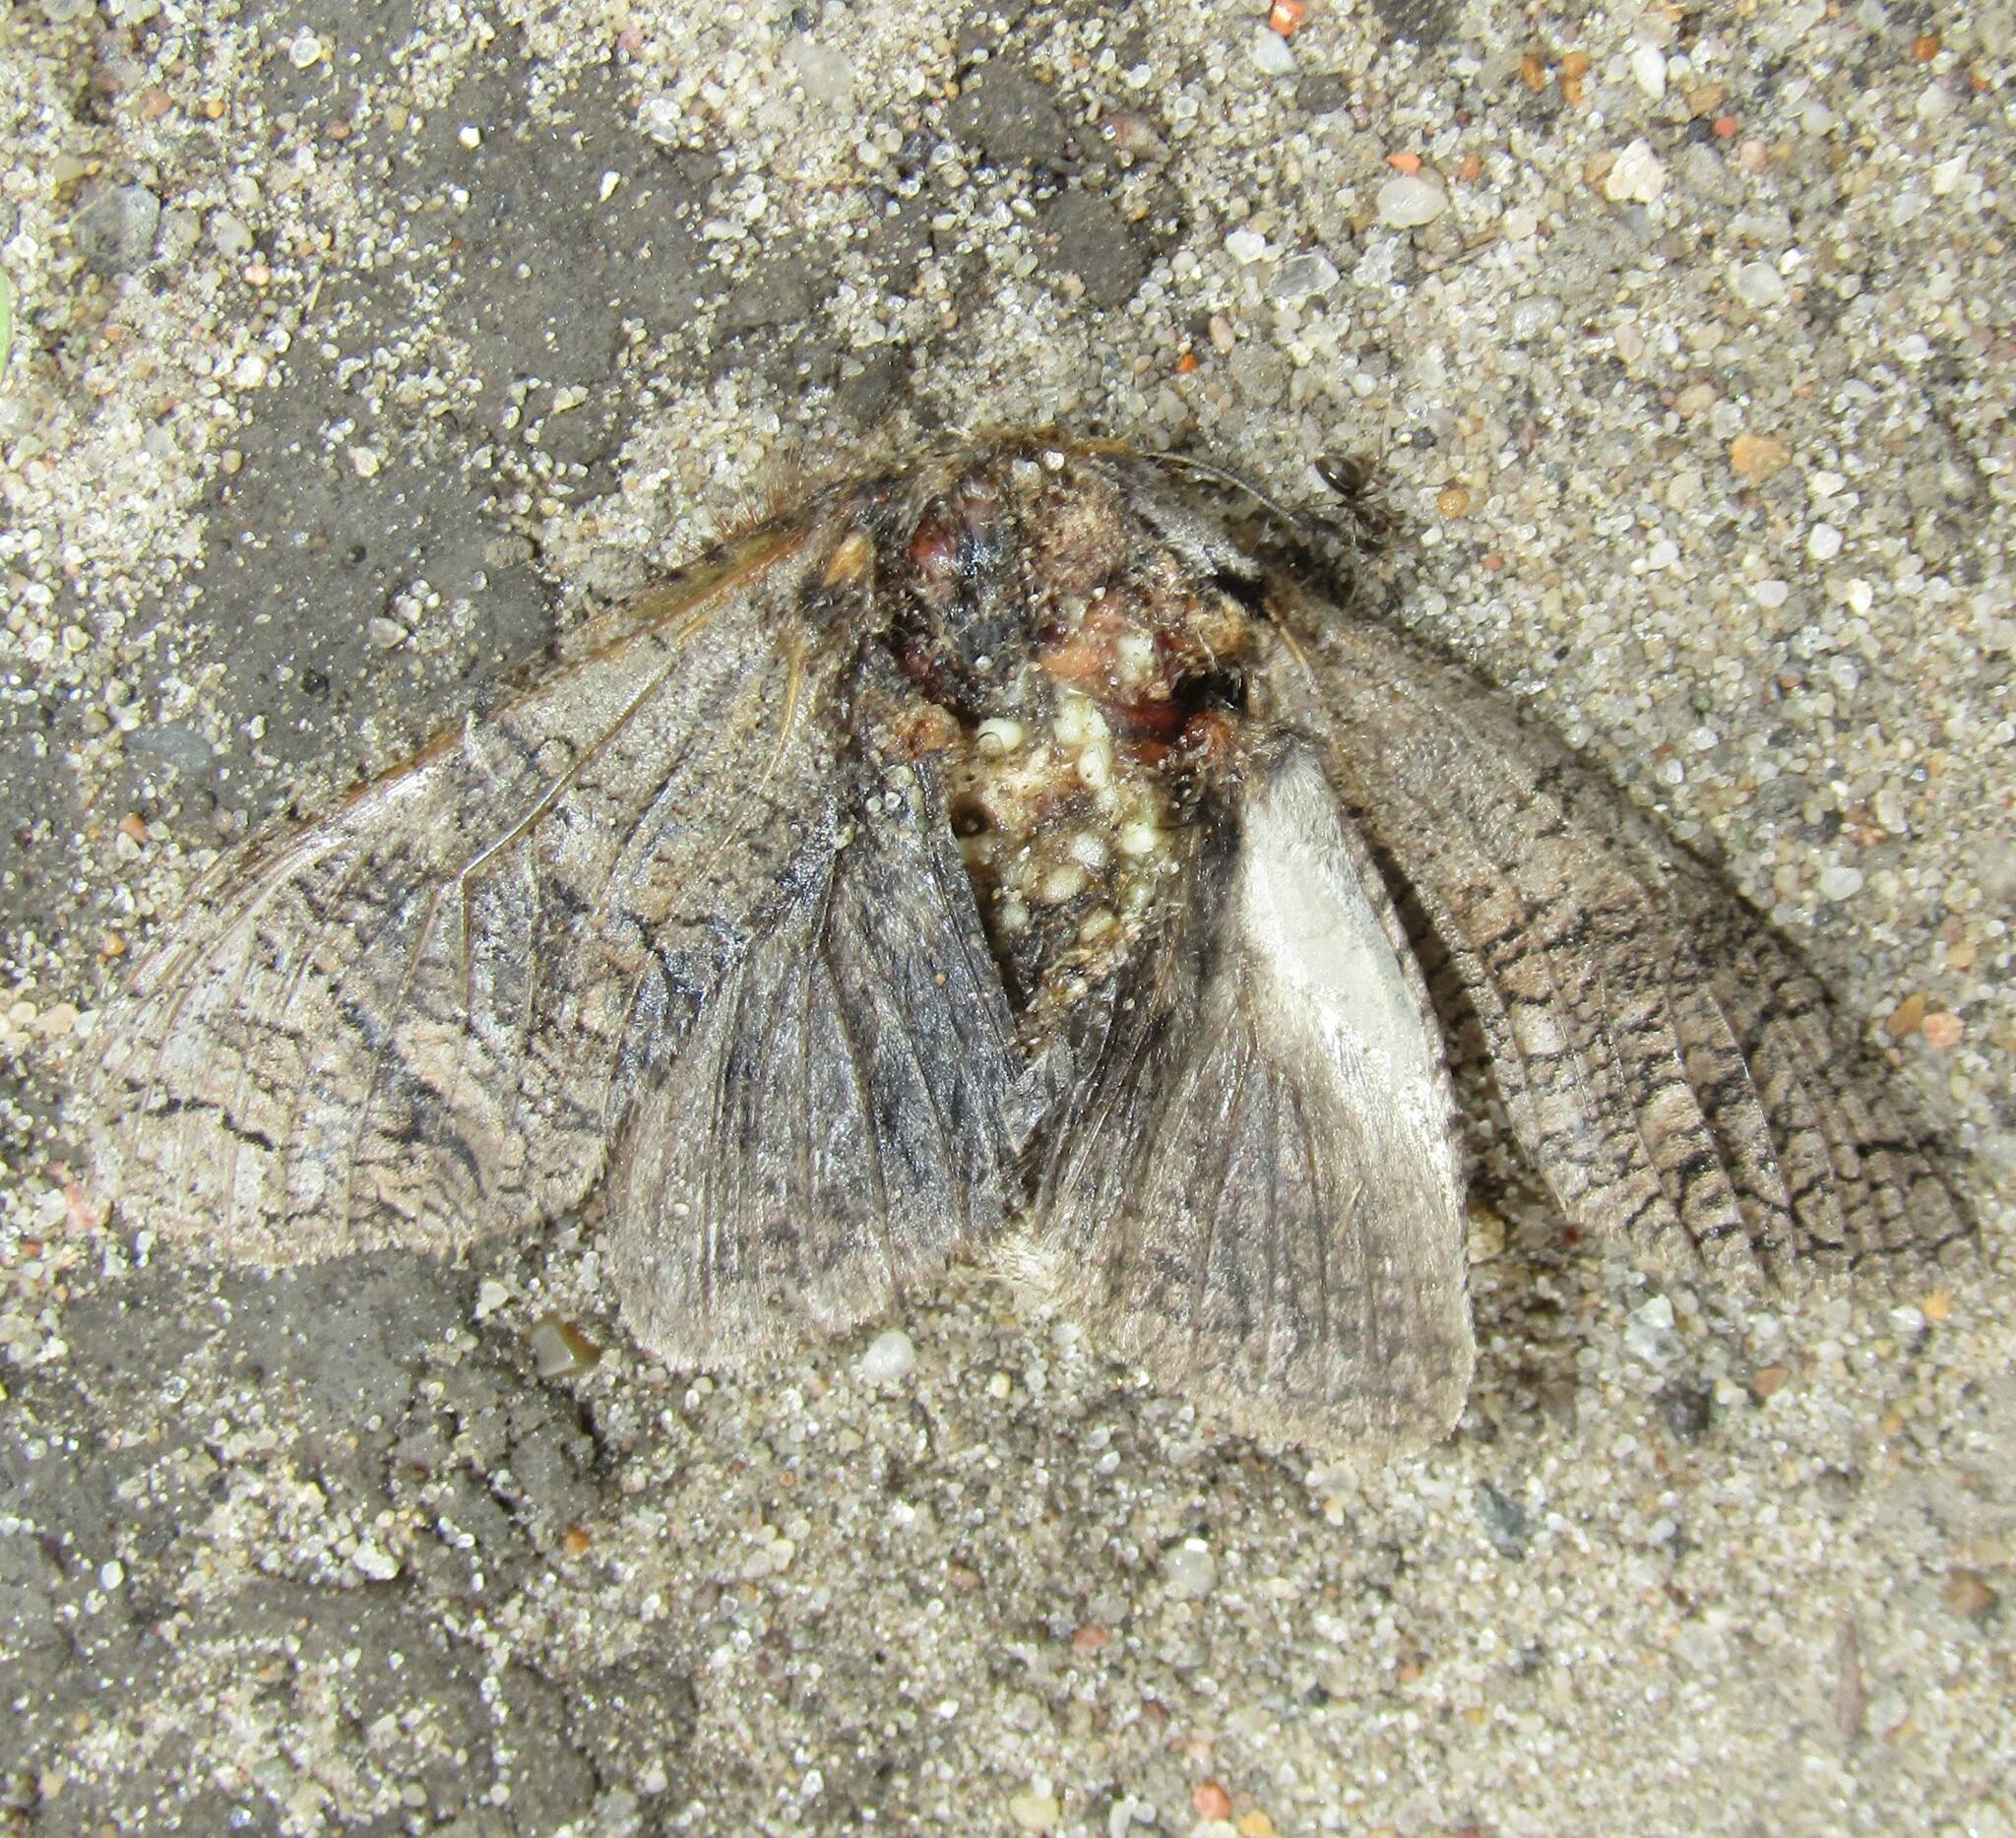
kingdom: Animalia
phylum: Arthropoda
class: Insecta
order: Lepidoptera
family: Cossidae
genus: Cossus
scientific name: Cossus cossus
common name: Goat moth
